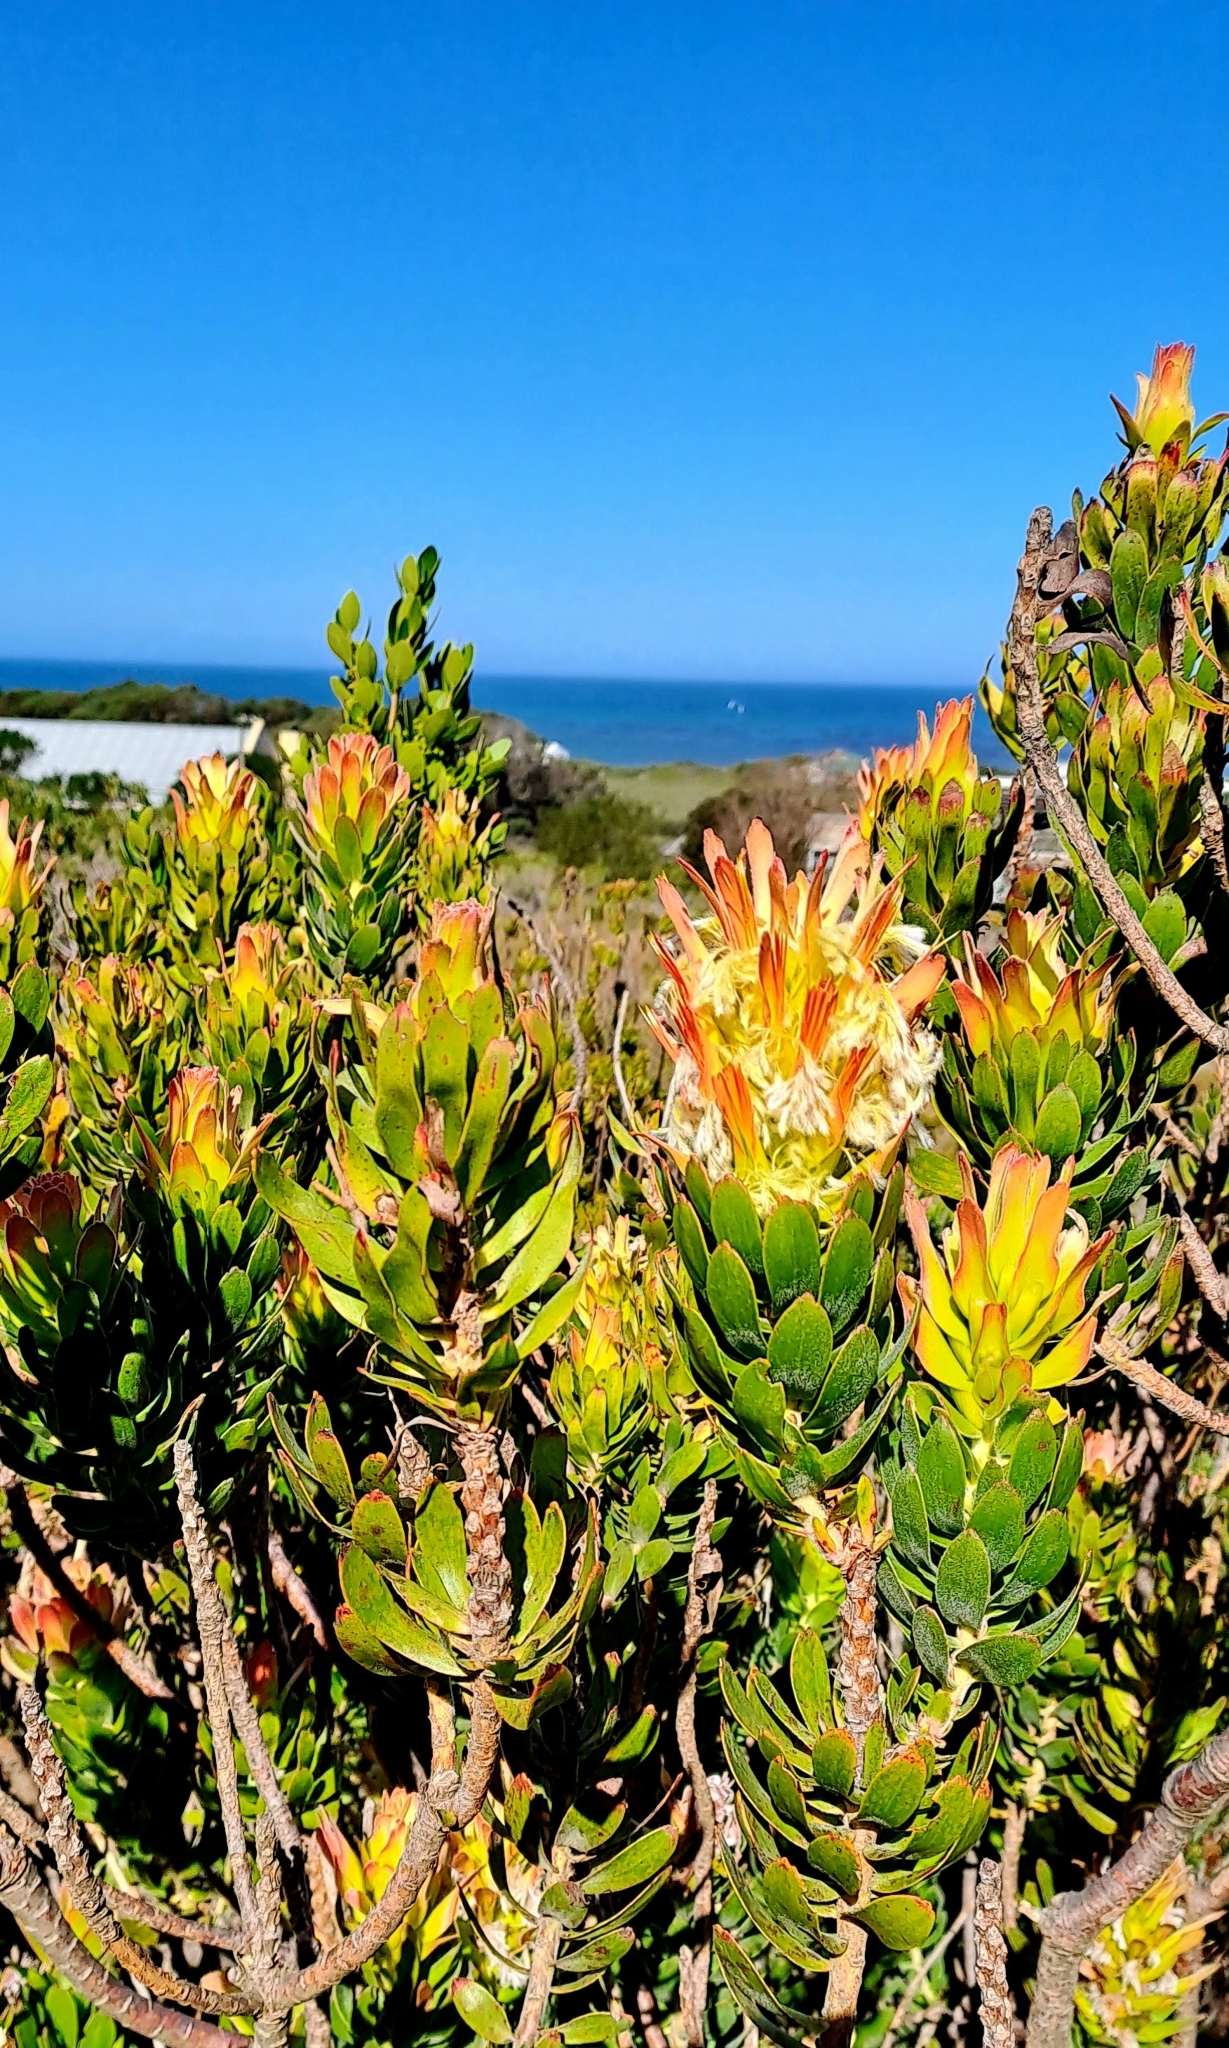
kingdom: Plantae
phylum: Tracheophyta
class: Magnoliopsida
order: Proteales
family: Proteaceae
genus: Mimetes
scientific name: Mimetes cucullatus
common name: Common pagoda
